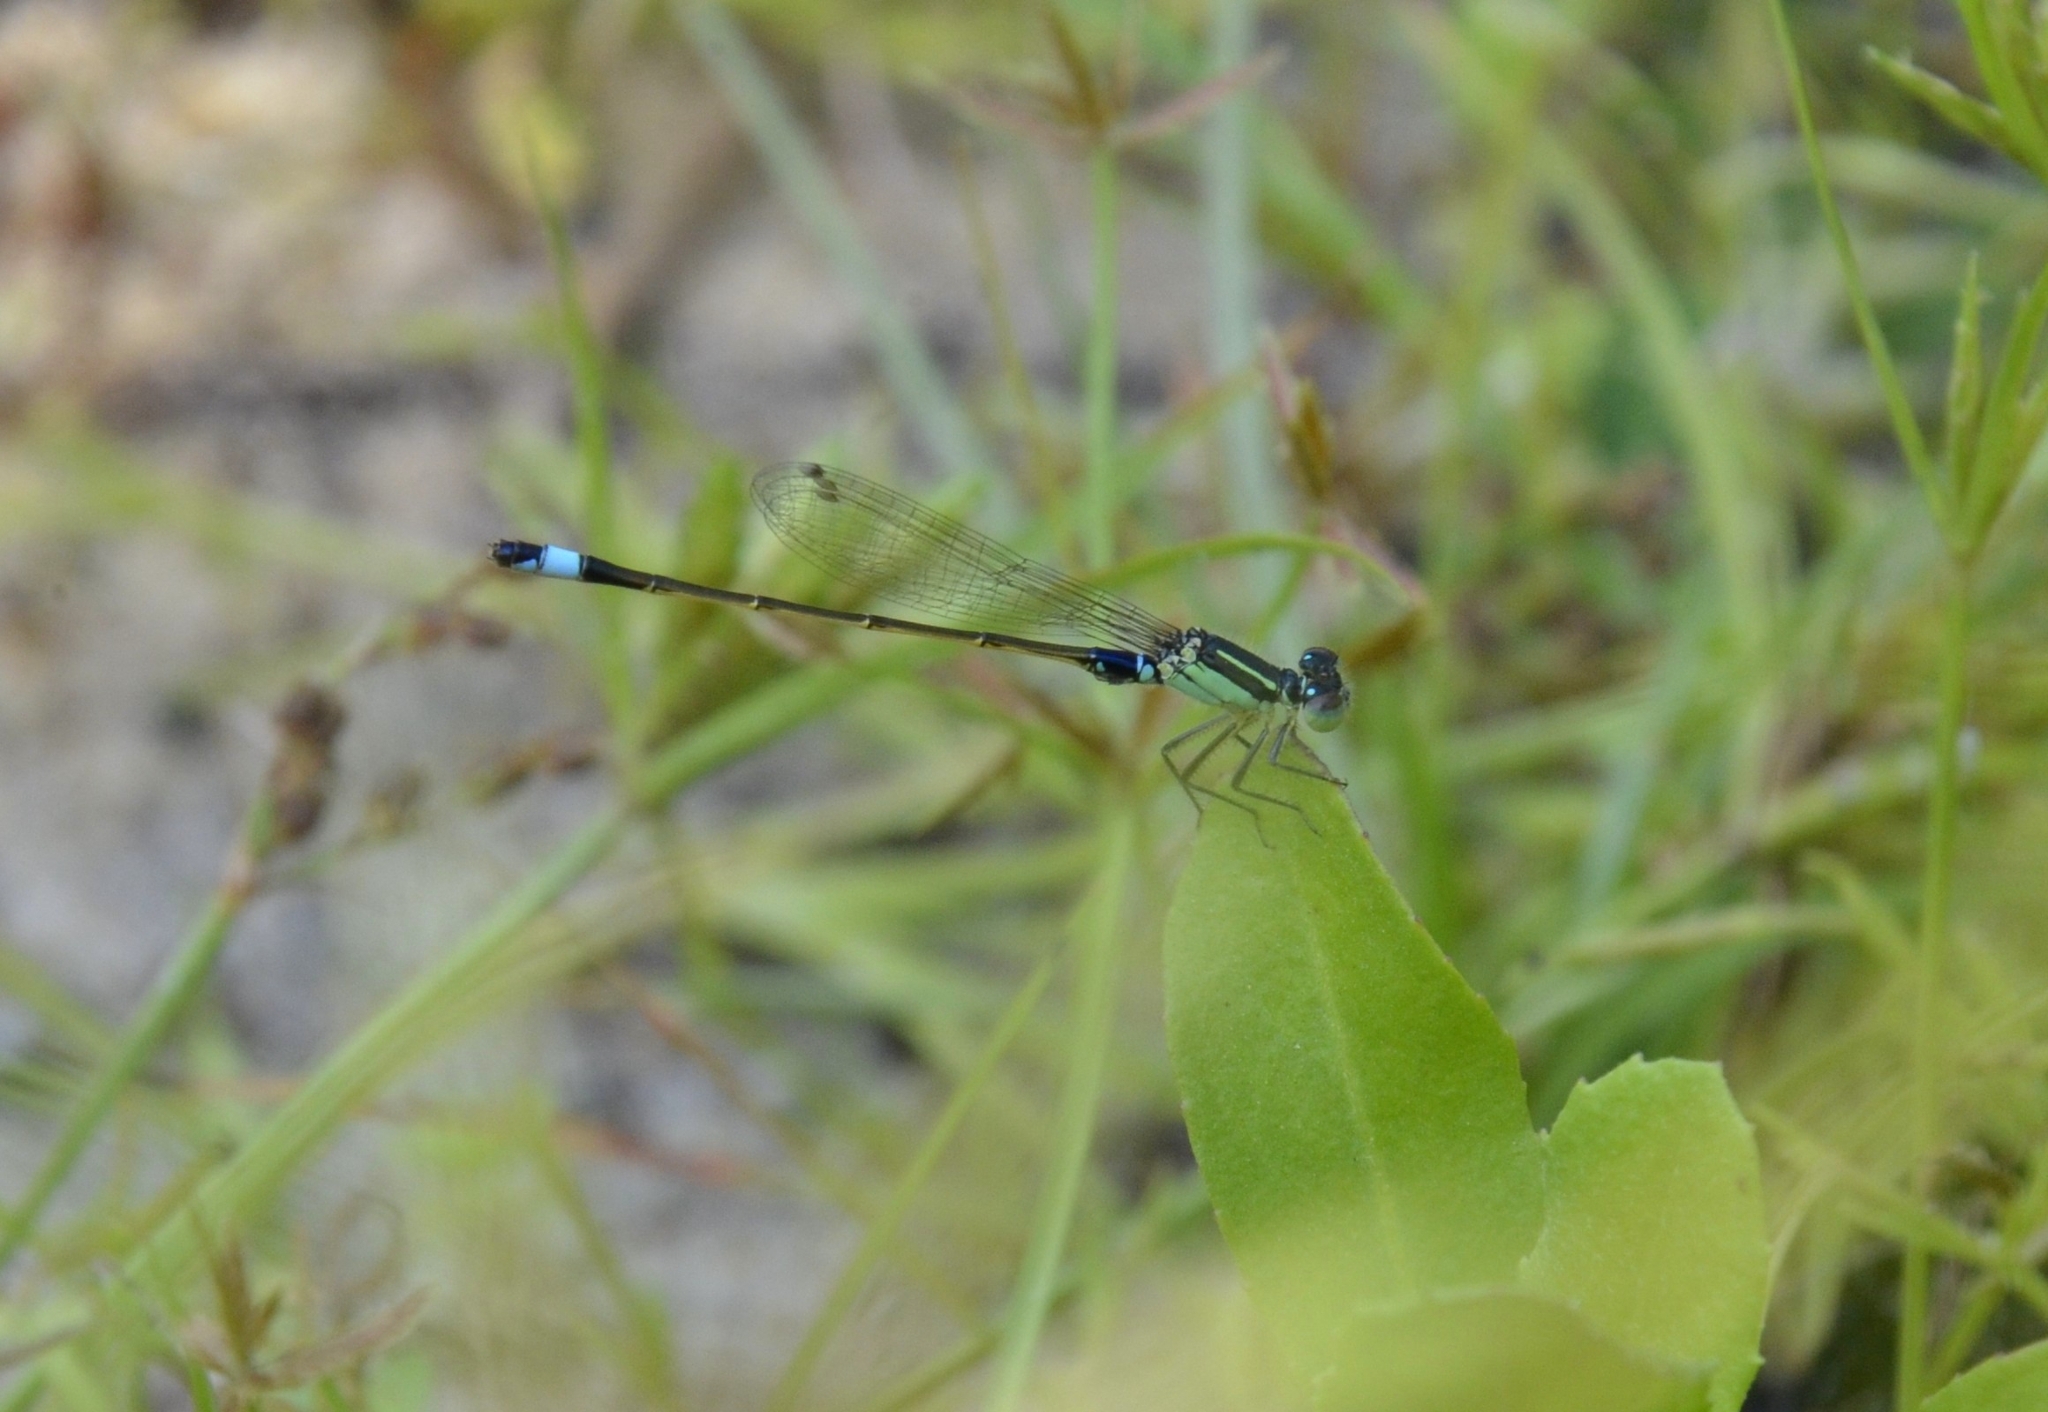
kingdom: Animalia
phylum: Arthropoda
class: Insecta
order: Odonata
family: Coenagrionidae
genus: Ischnura
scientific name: Ischnura senegalensis
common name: Tropical bluetail
